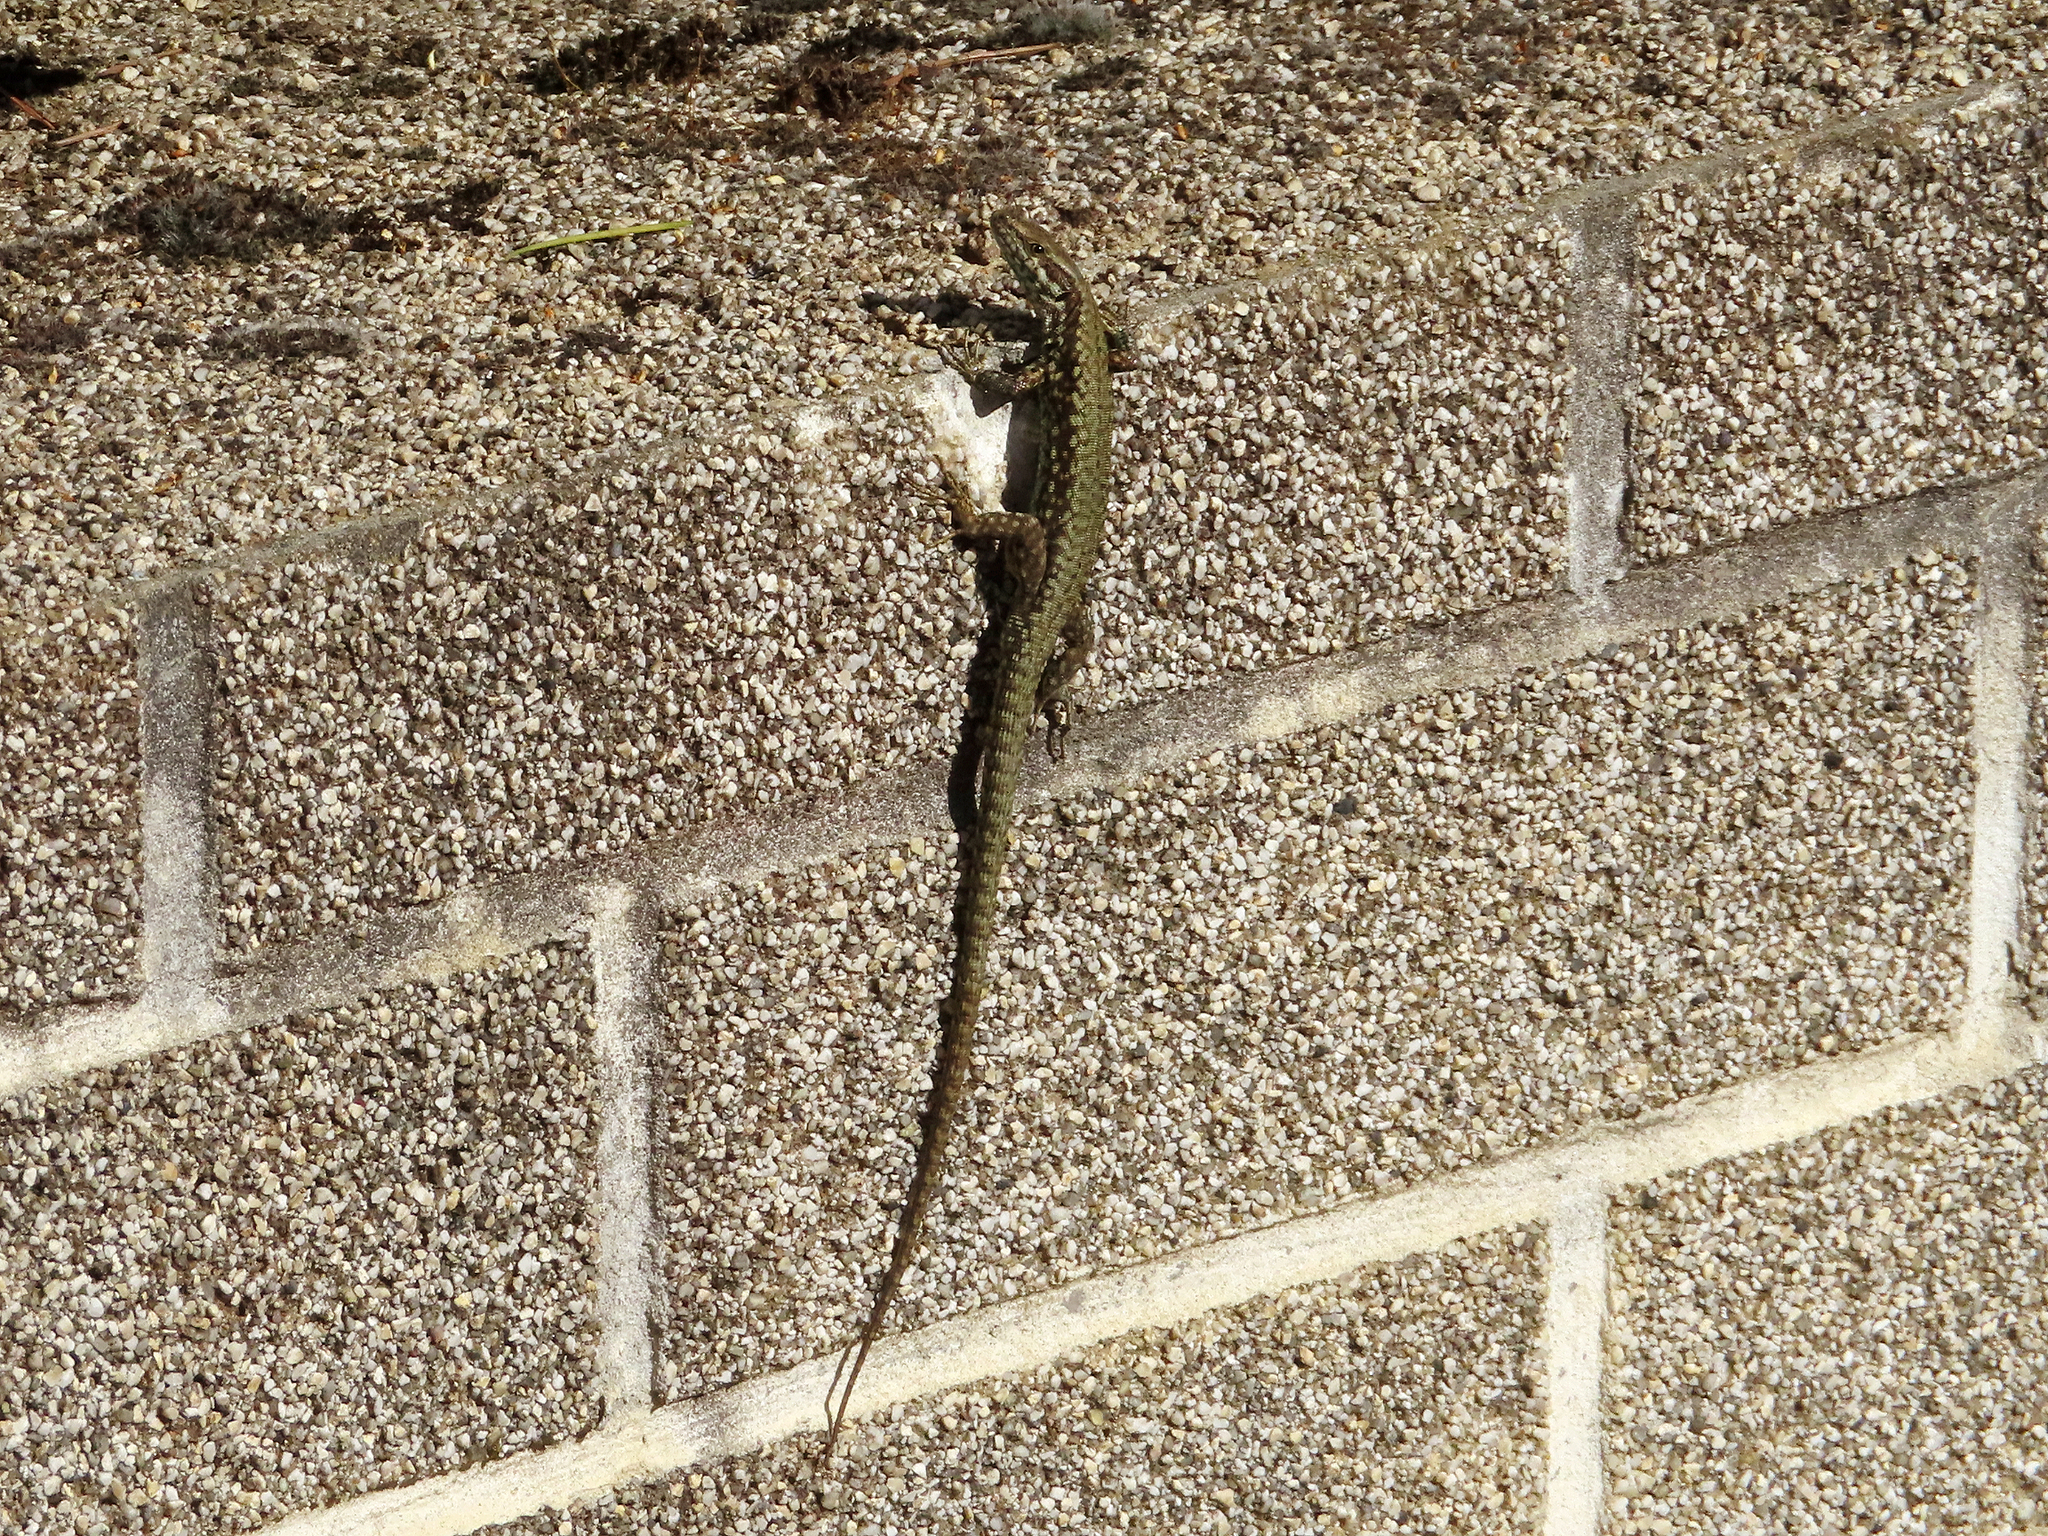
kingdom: Animalia
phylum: Chordata
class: Squamata
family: Lacertidae
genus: Podarcis
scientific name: Podarcis muralis
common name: Common wall lizard
